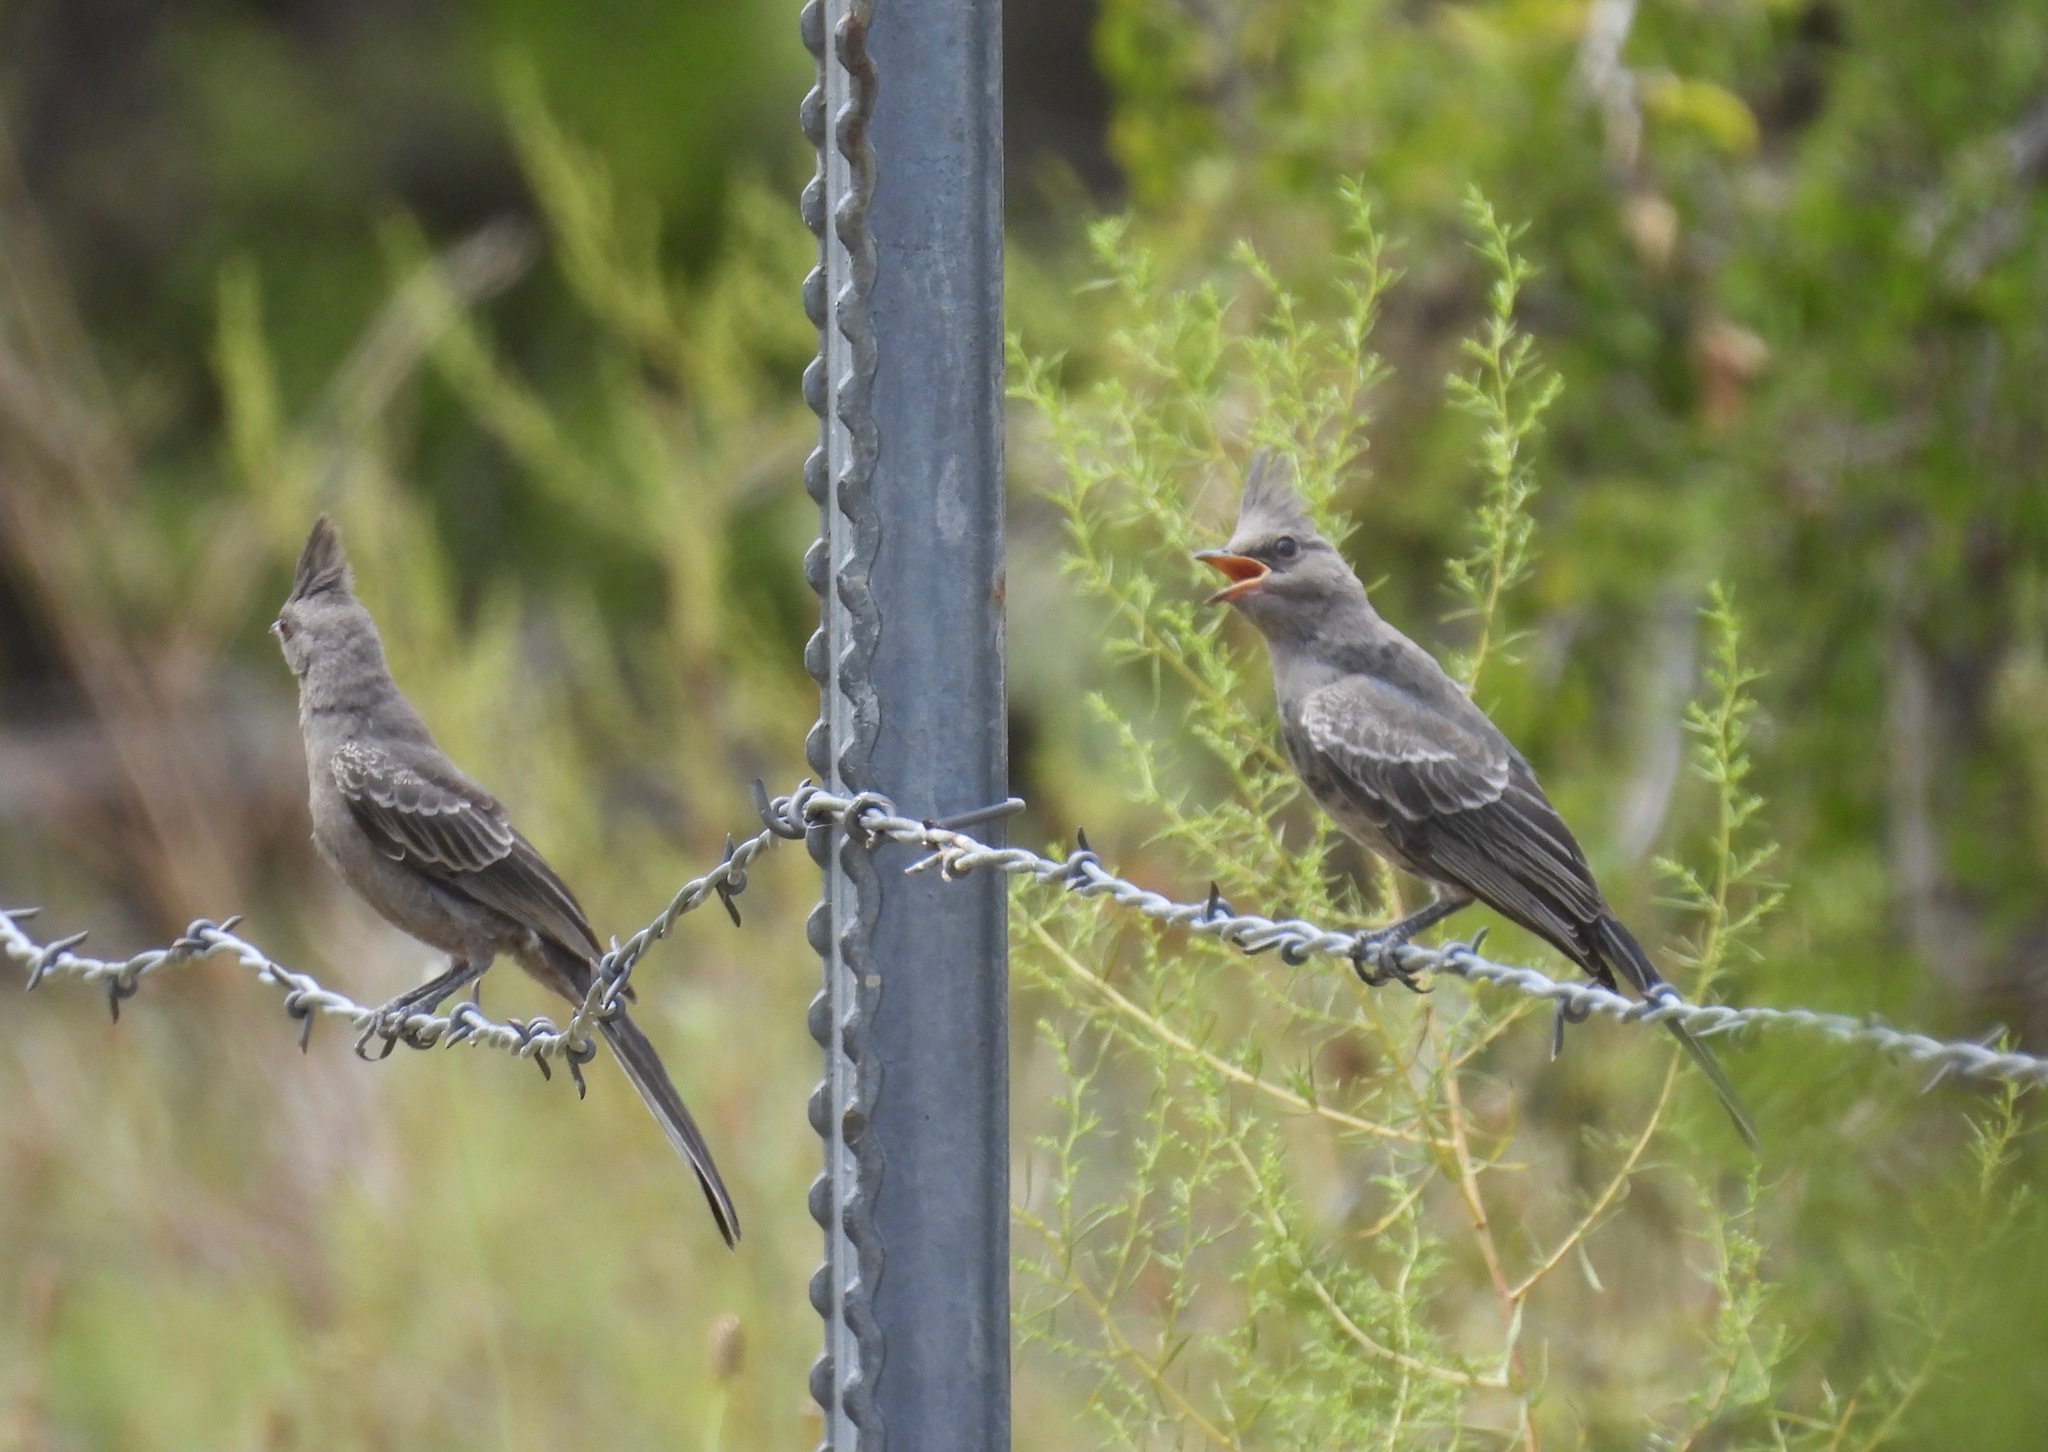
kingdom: Animalia
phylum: Chordata
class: Aves
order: Passeriformes
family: Ptilogonatidae
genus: Phainopepla
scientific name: Phainopepla nitens
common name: Phainopepla
